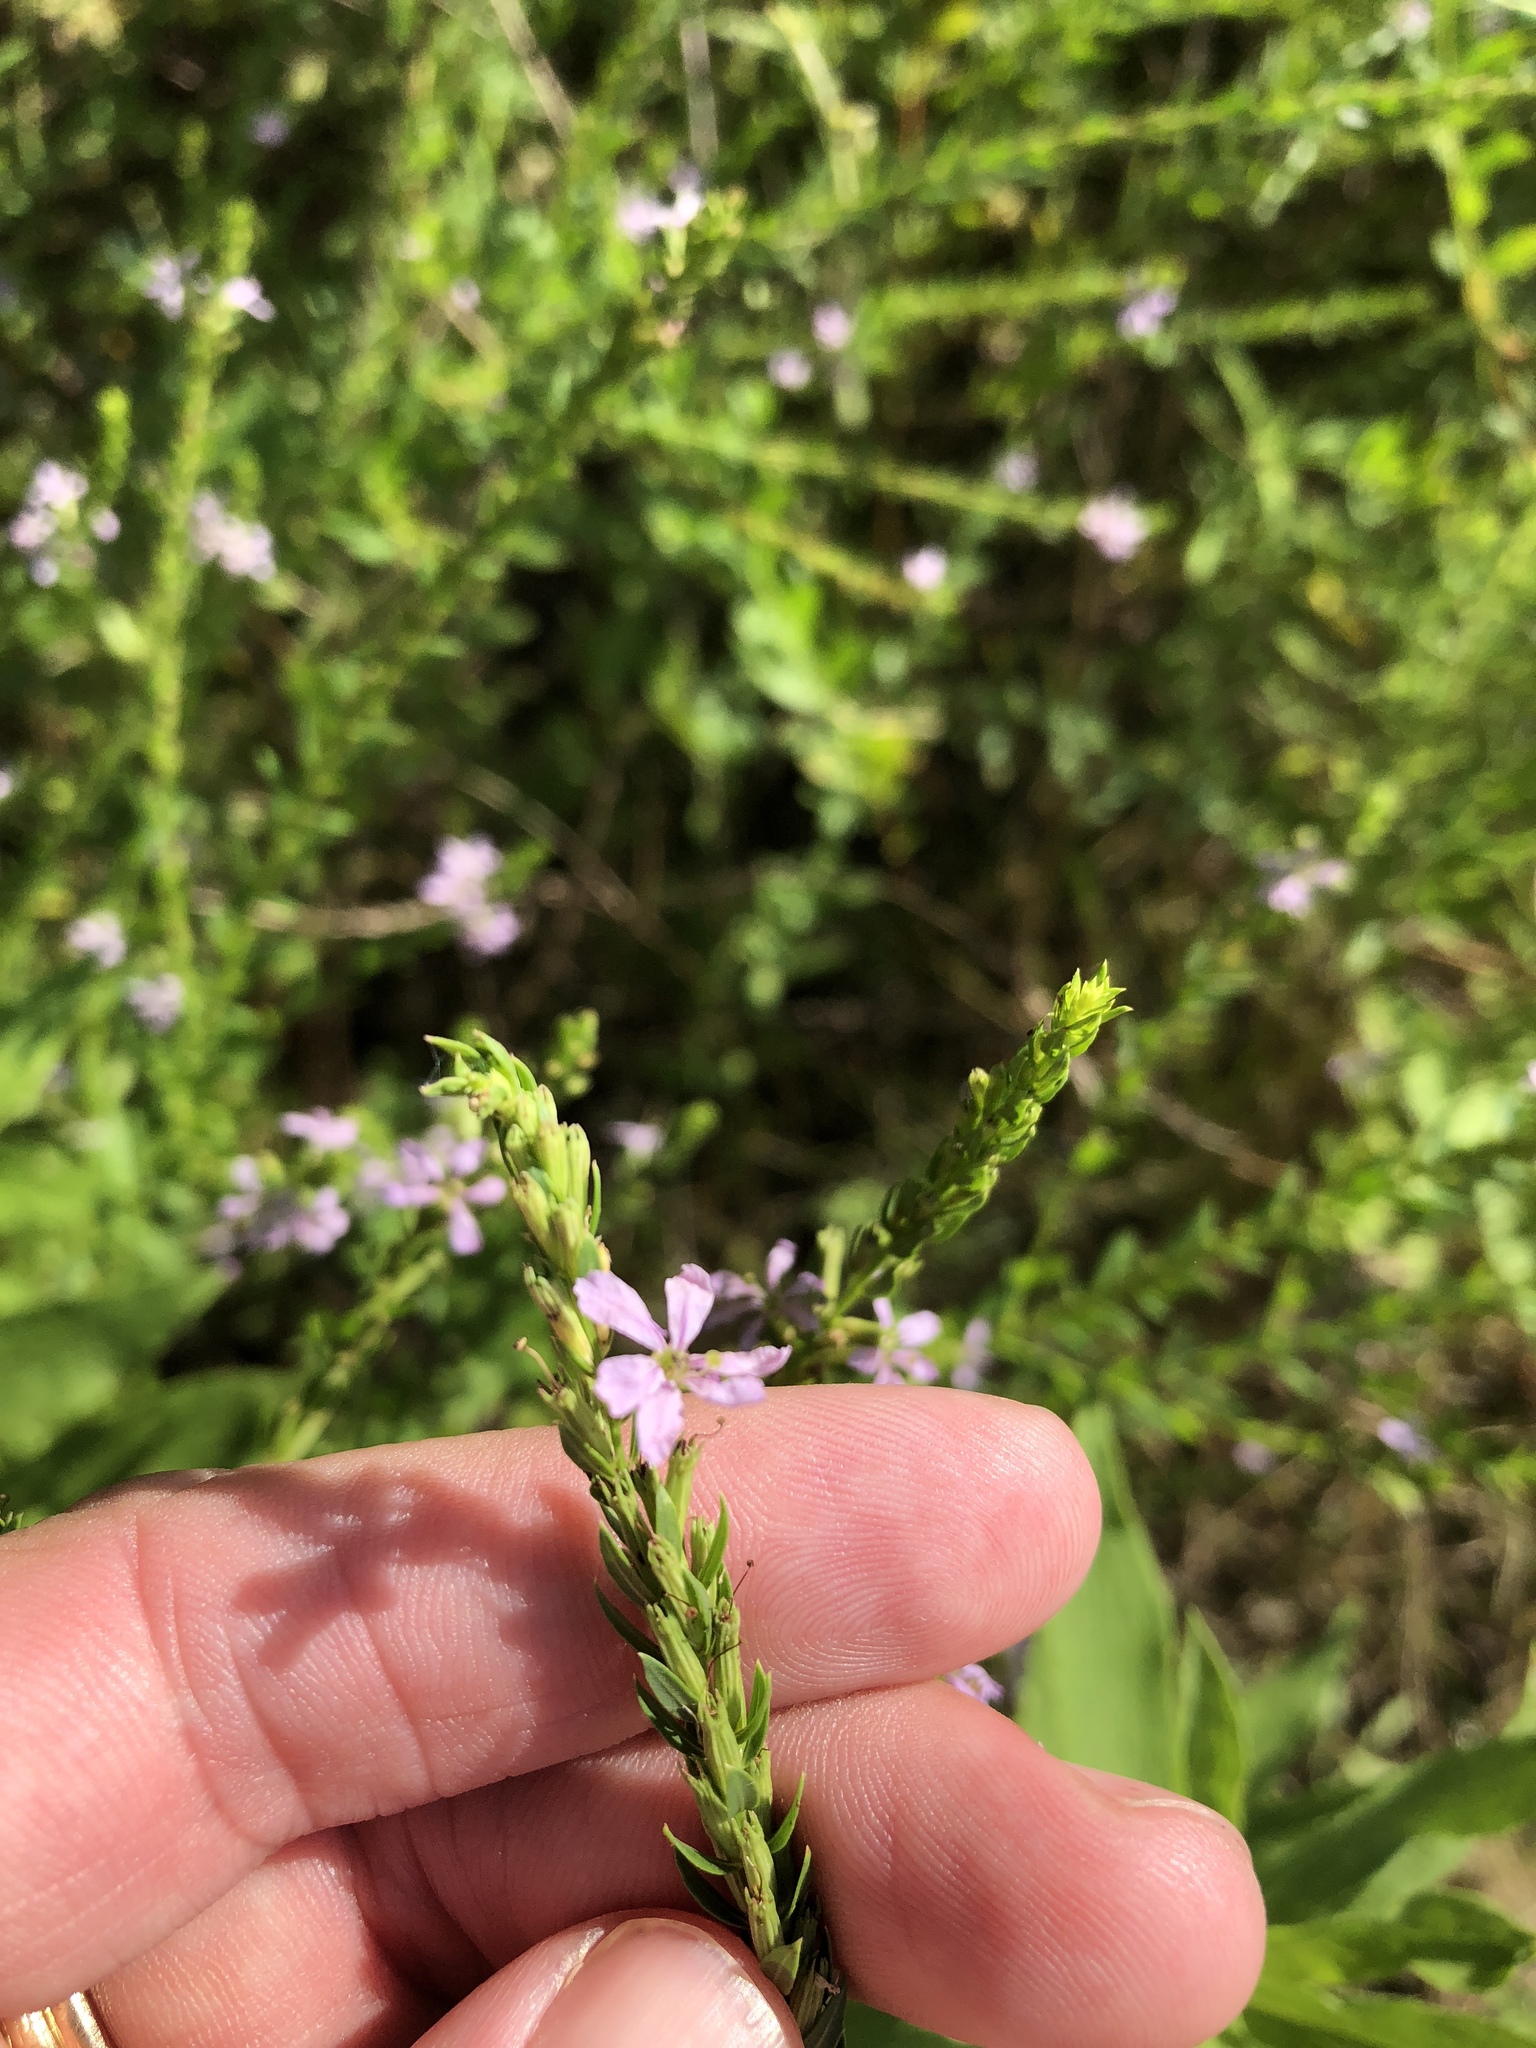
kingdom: Plantae
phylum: Tracheophyta
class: Magnoliopsida
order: Myrtales
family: Lythraceae
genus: Lythrum
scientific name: Lythrum alatum
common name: Winged loosestrife
